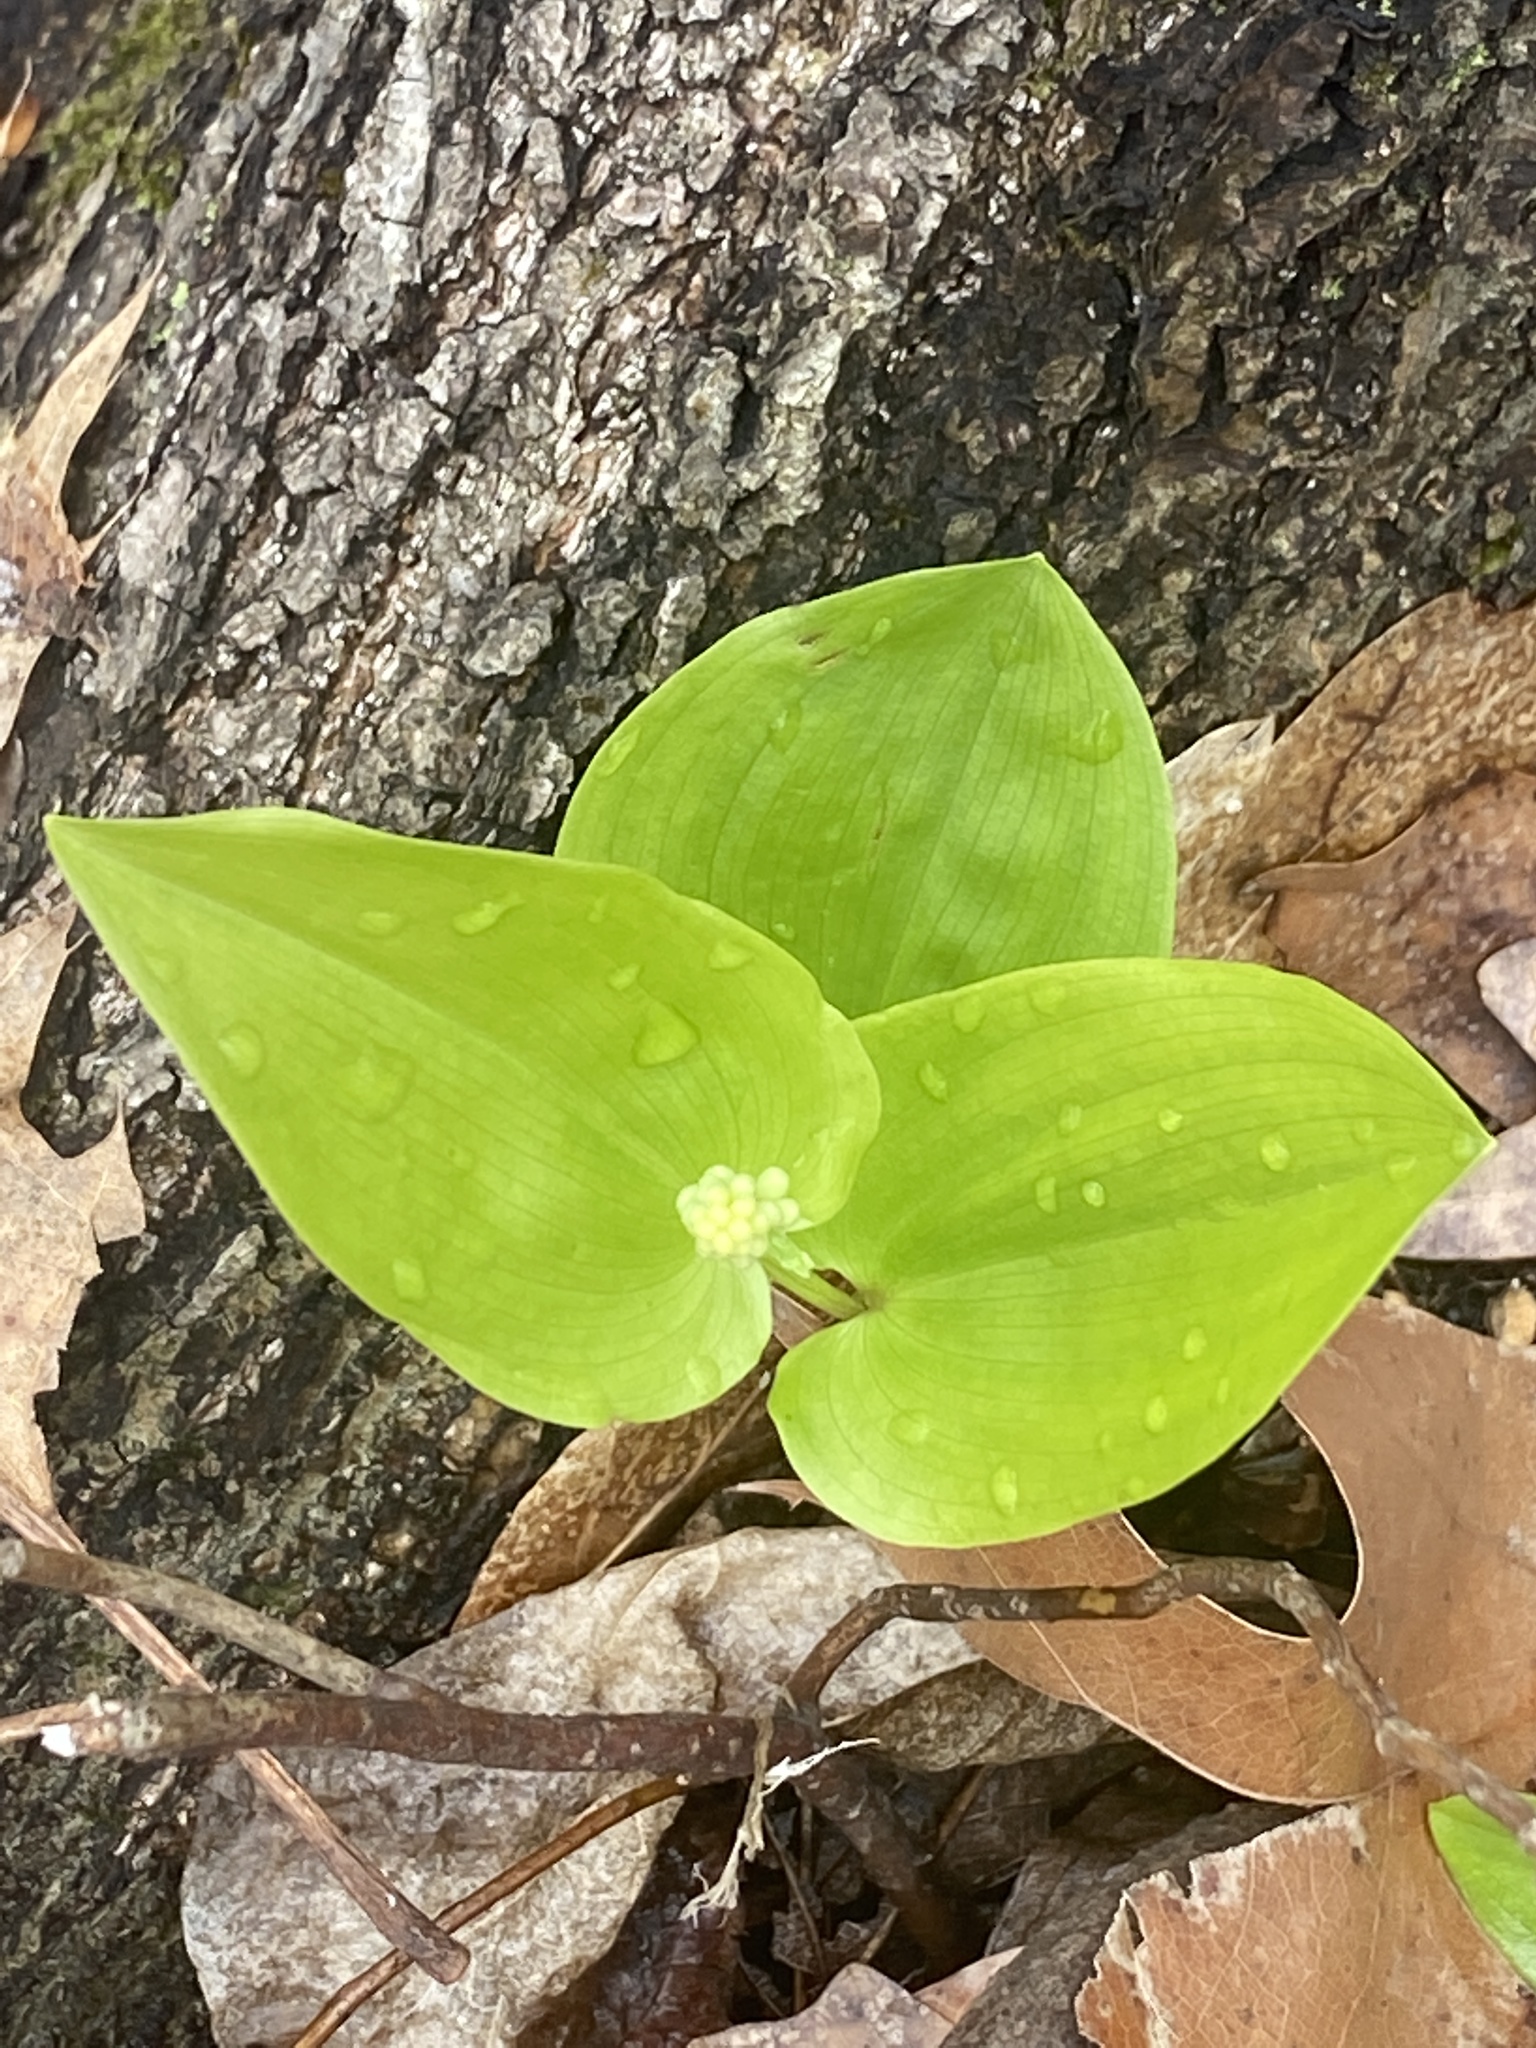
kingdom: Plantae
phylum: Tracheophyta
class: Liliopsida
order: Asparagales
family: Asparagaceae
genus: Maianthemum
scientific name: Maianthemum canadense
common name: False lily-of-the-valley
